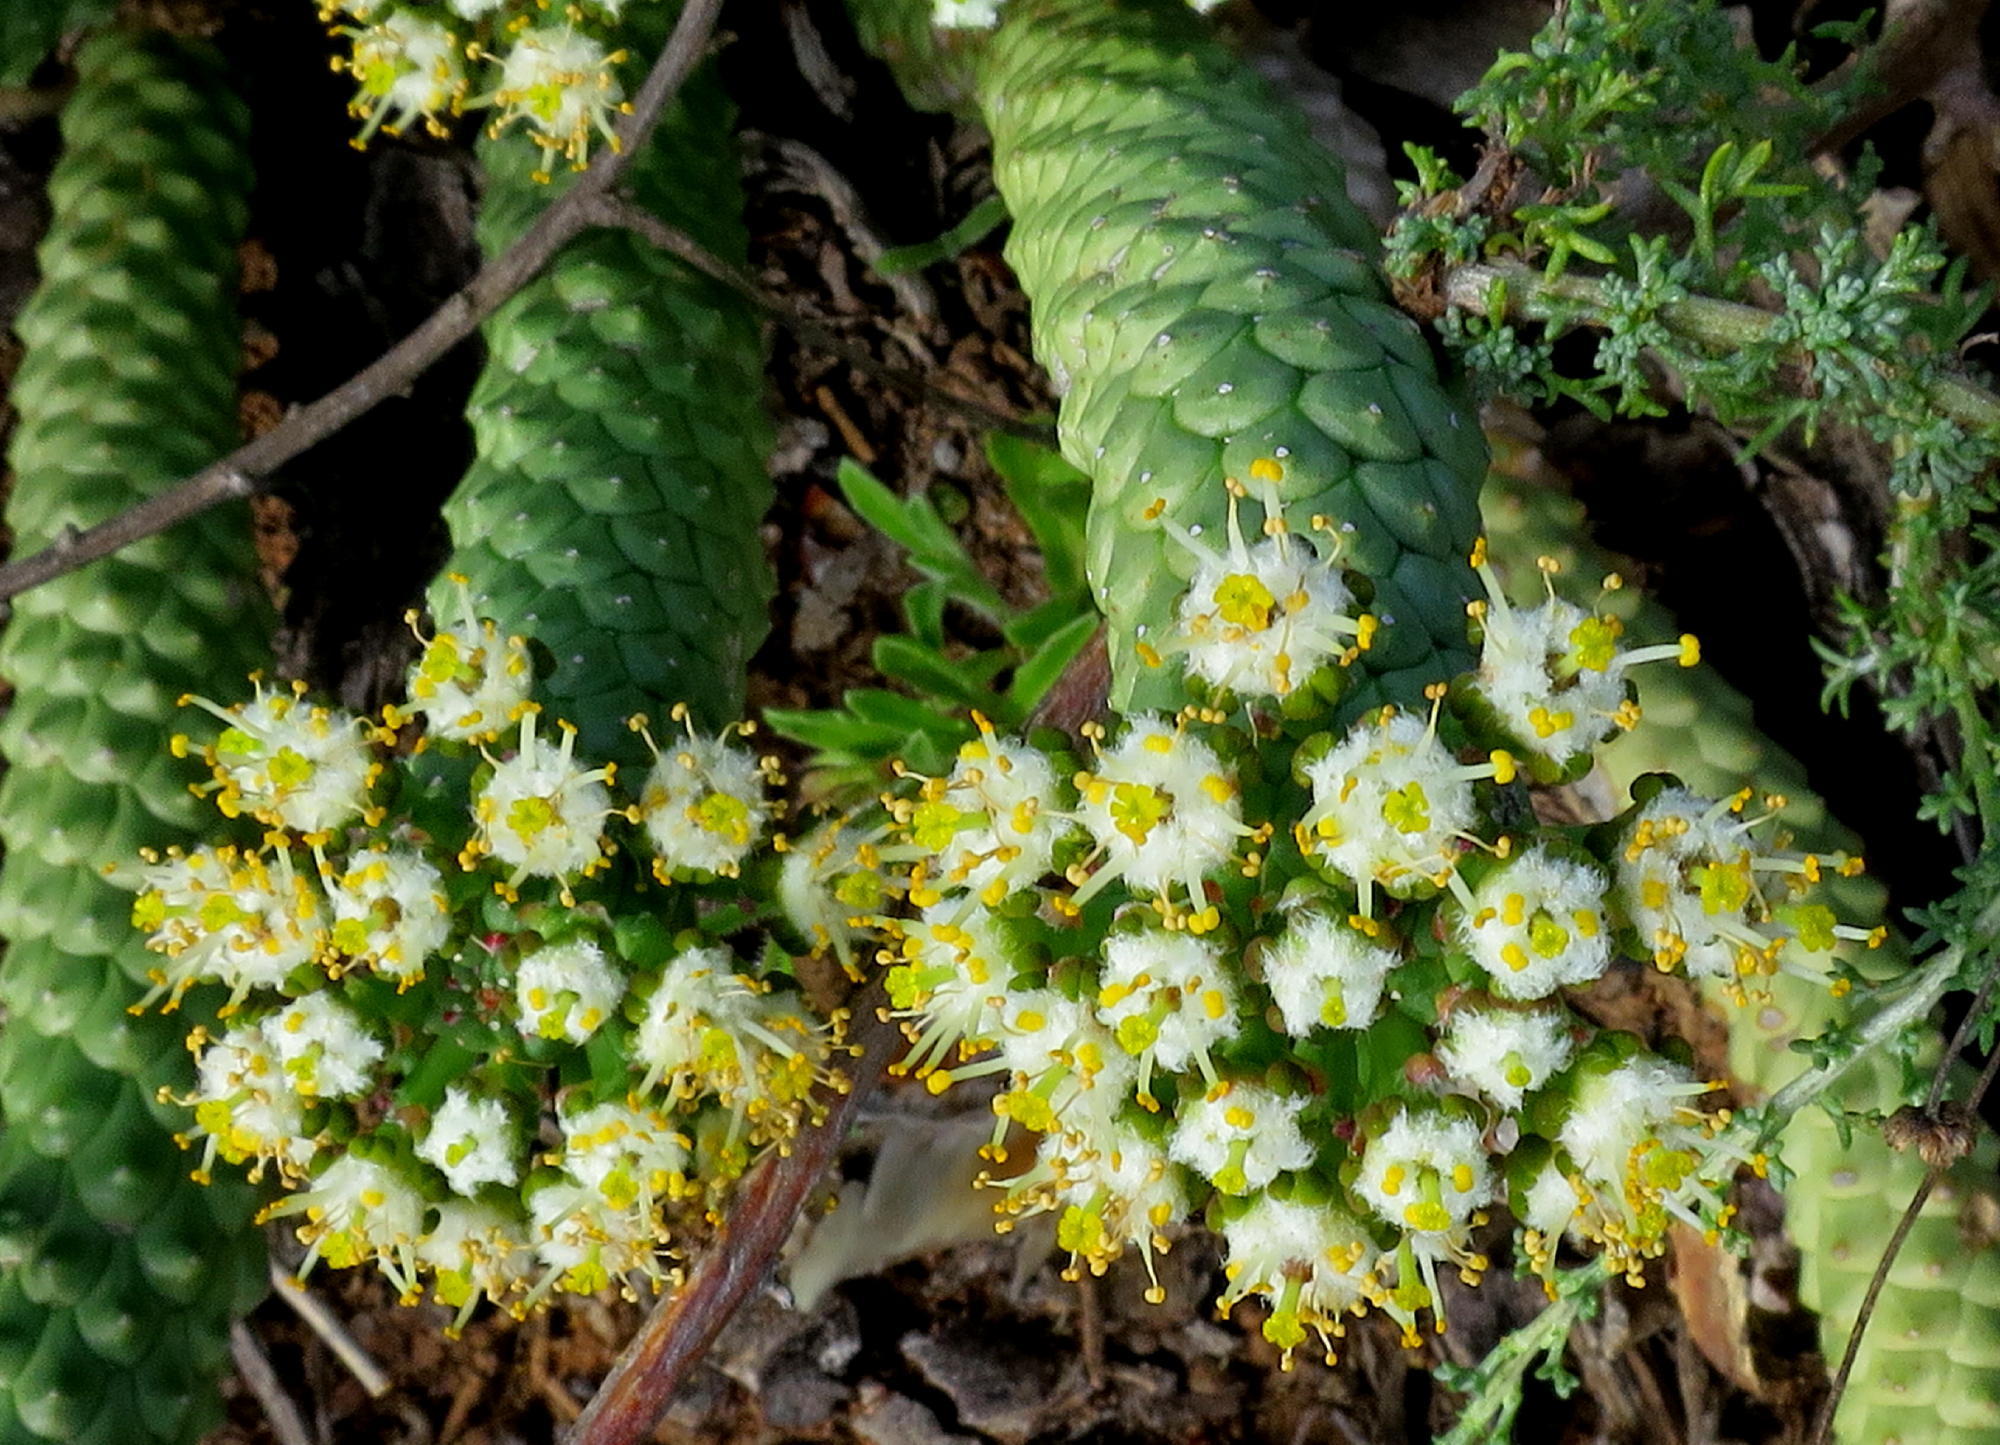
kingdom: Plantae
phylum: Tracheophyta
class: Magnoliopsida
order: Malpighiales
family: Euphorbiaceae
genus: Euphorbia
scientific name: Euphorbia esculenta
